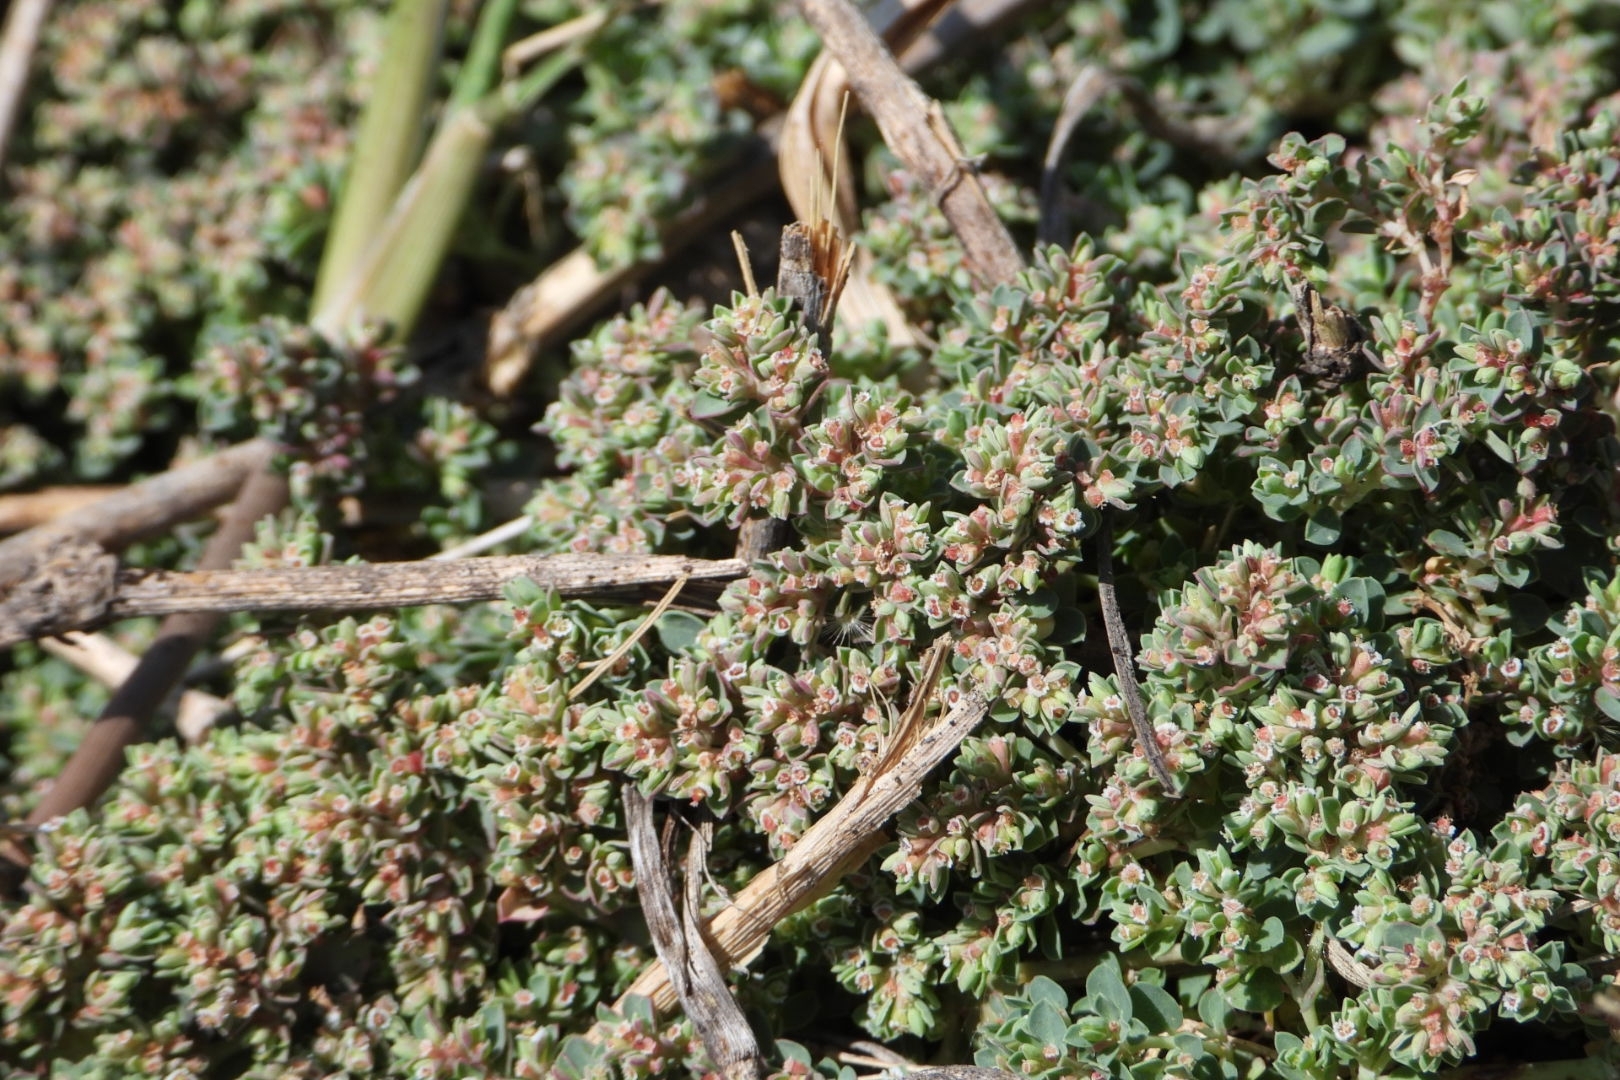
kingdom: Plantae
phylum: Tracheophyta
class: Magnoliopsida
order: Malpighiales
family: Euphorbiaceae
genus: Euphorbia
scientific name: Euphorbia serpens
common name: Matted sandmat
